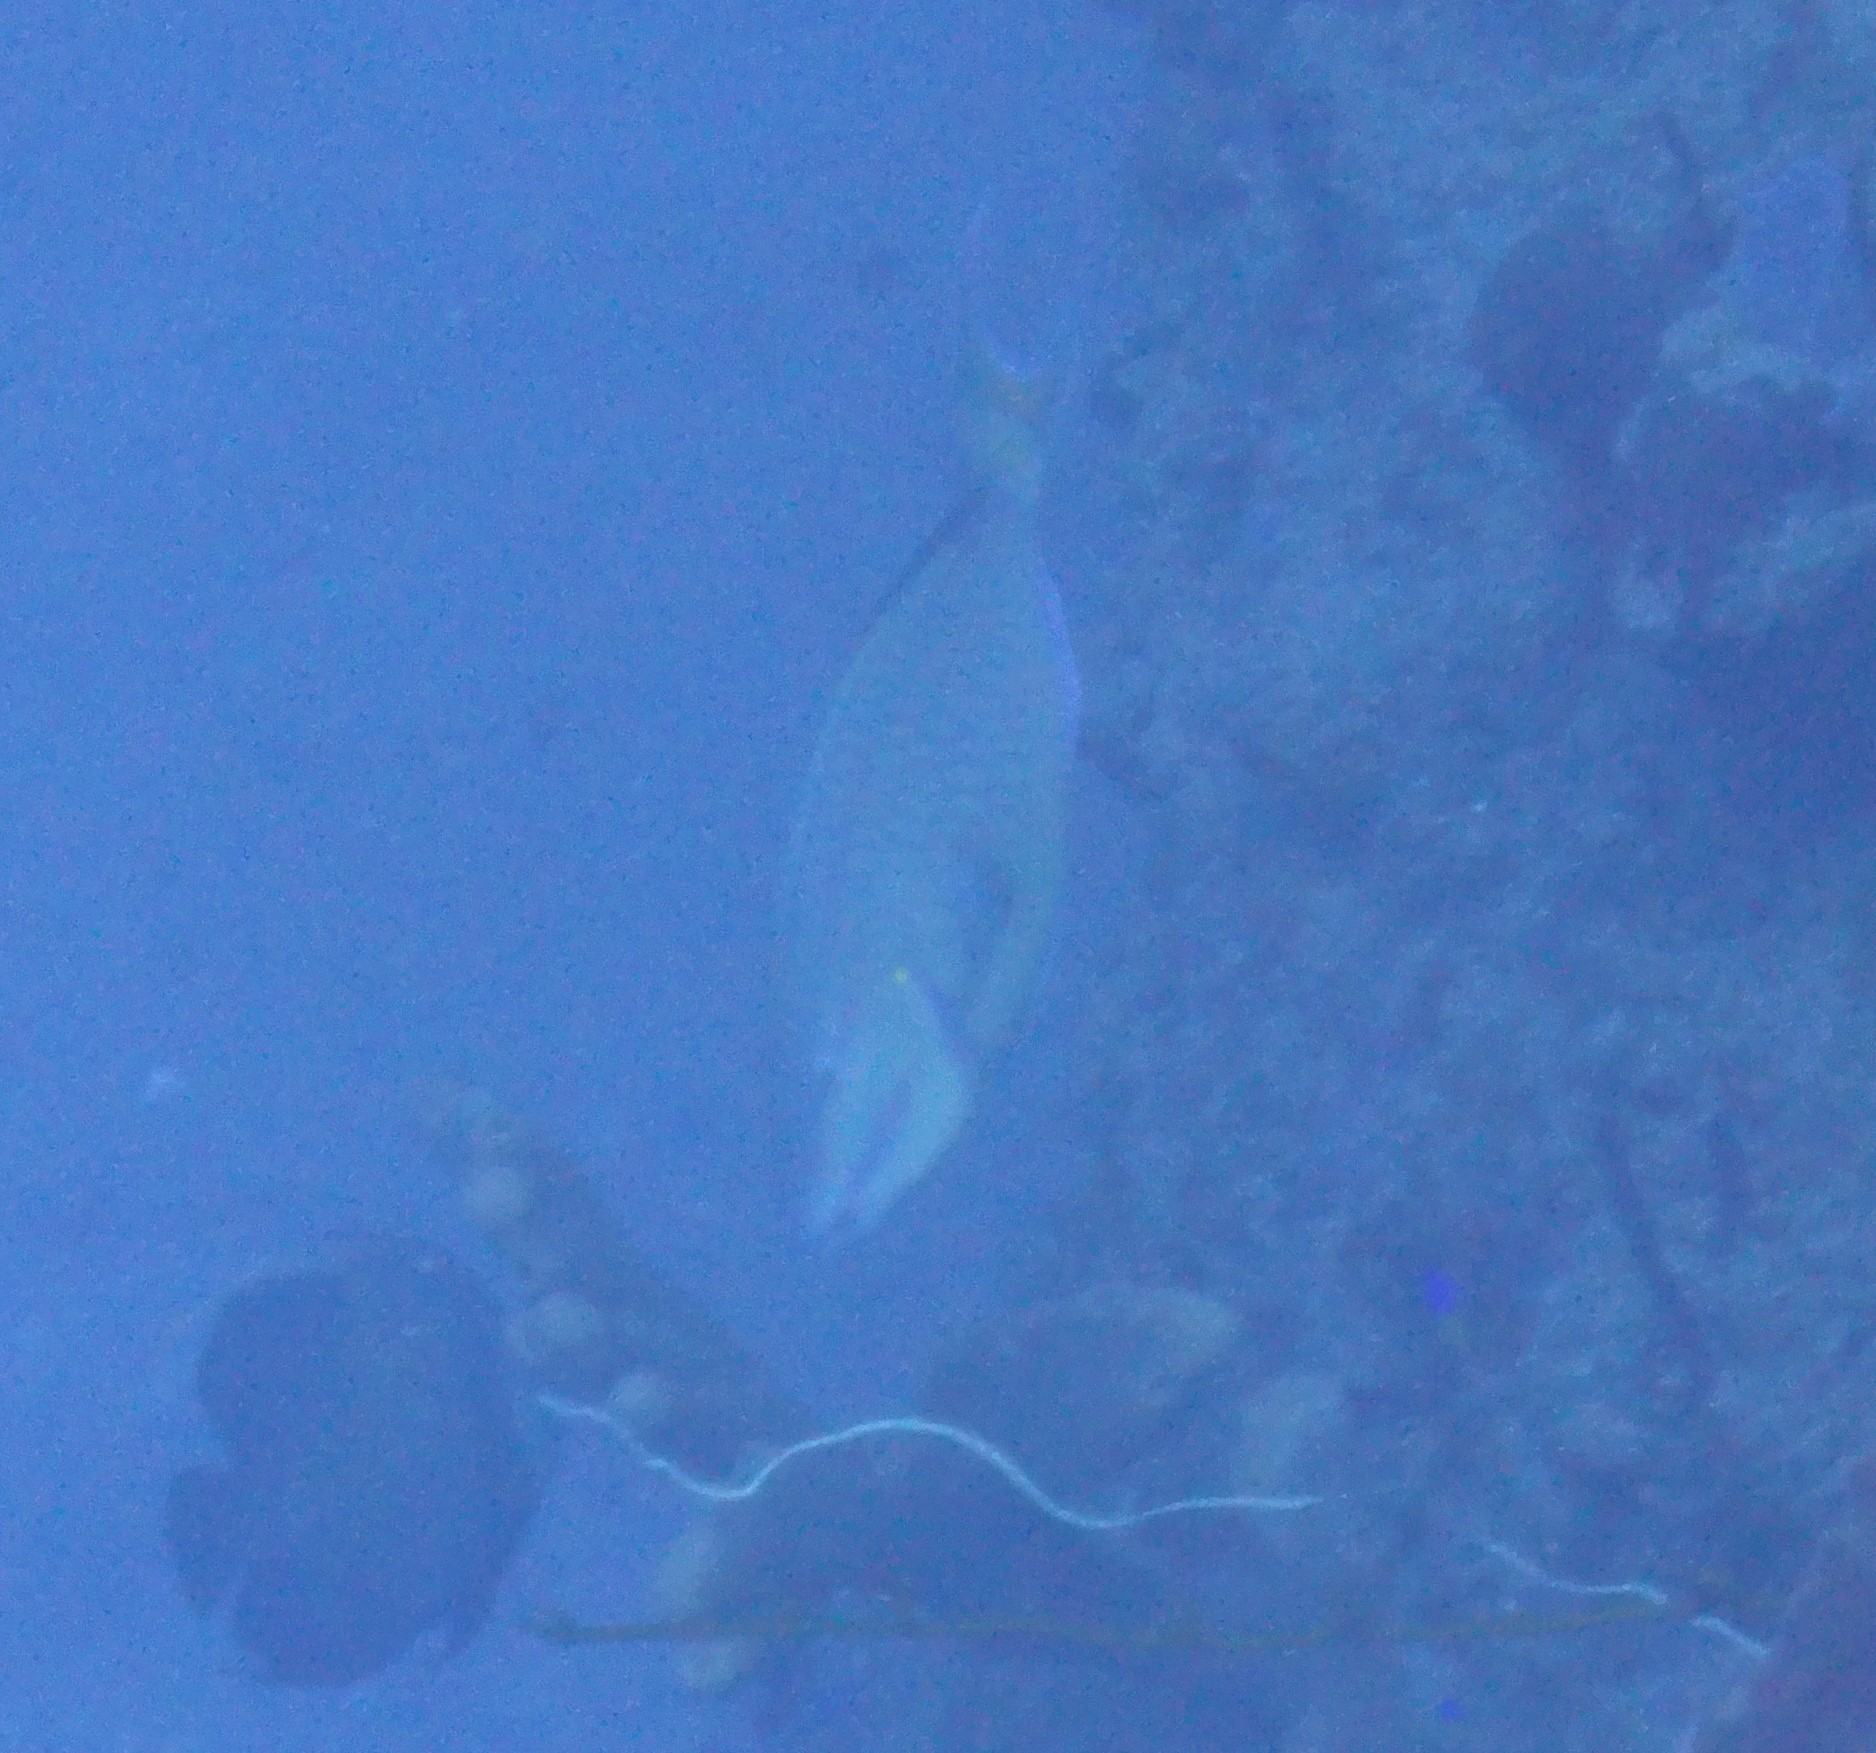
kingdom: Animalia
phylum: Chordata
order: Perciformes
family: Scaridae
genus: Sparisoma
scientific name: Sparisoma viride
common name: Stoplight parrotfish
